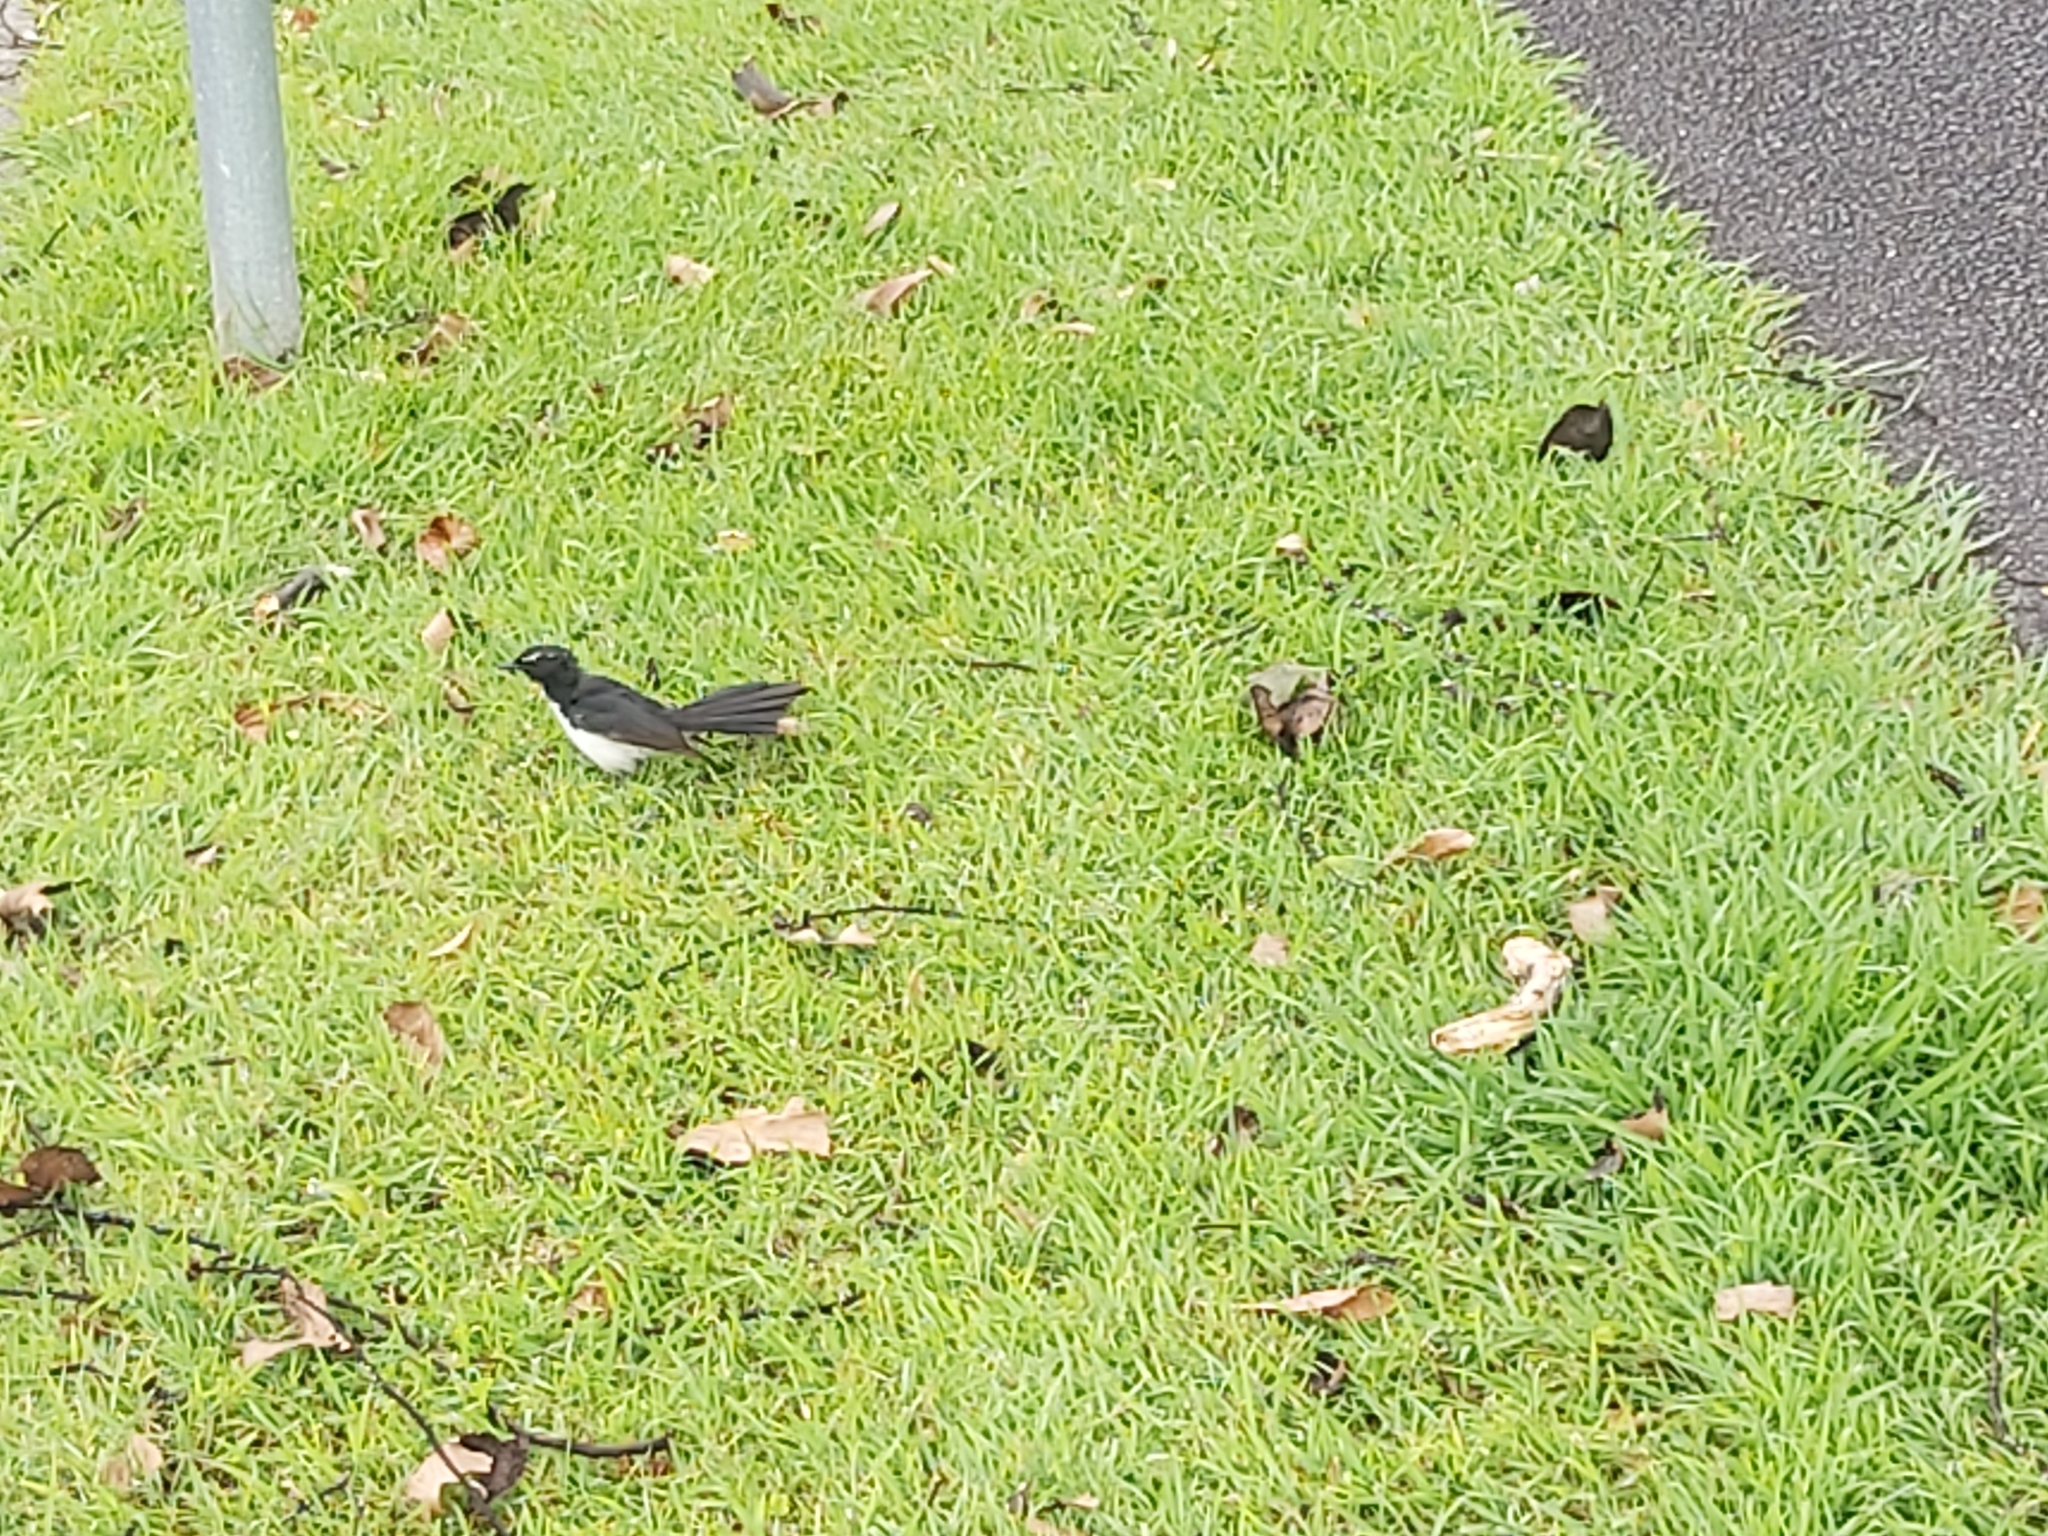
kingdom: Animalia
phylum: Chordata
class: Aves
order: Passeriformes
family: Rhipiduridae
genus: Rhipidura
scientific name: Rhipidura leucophrys
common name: Willie wagtail
